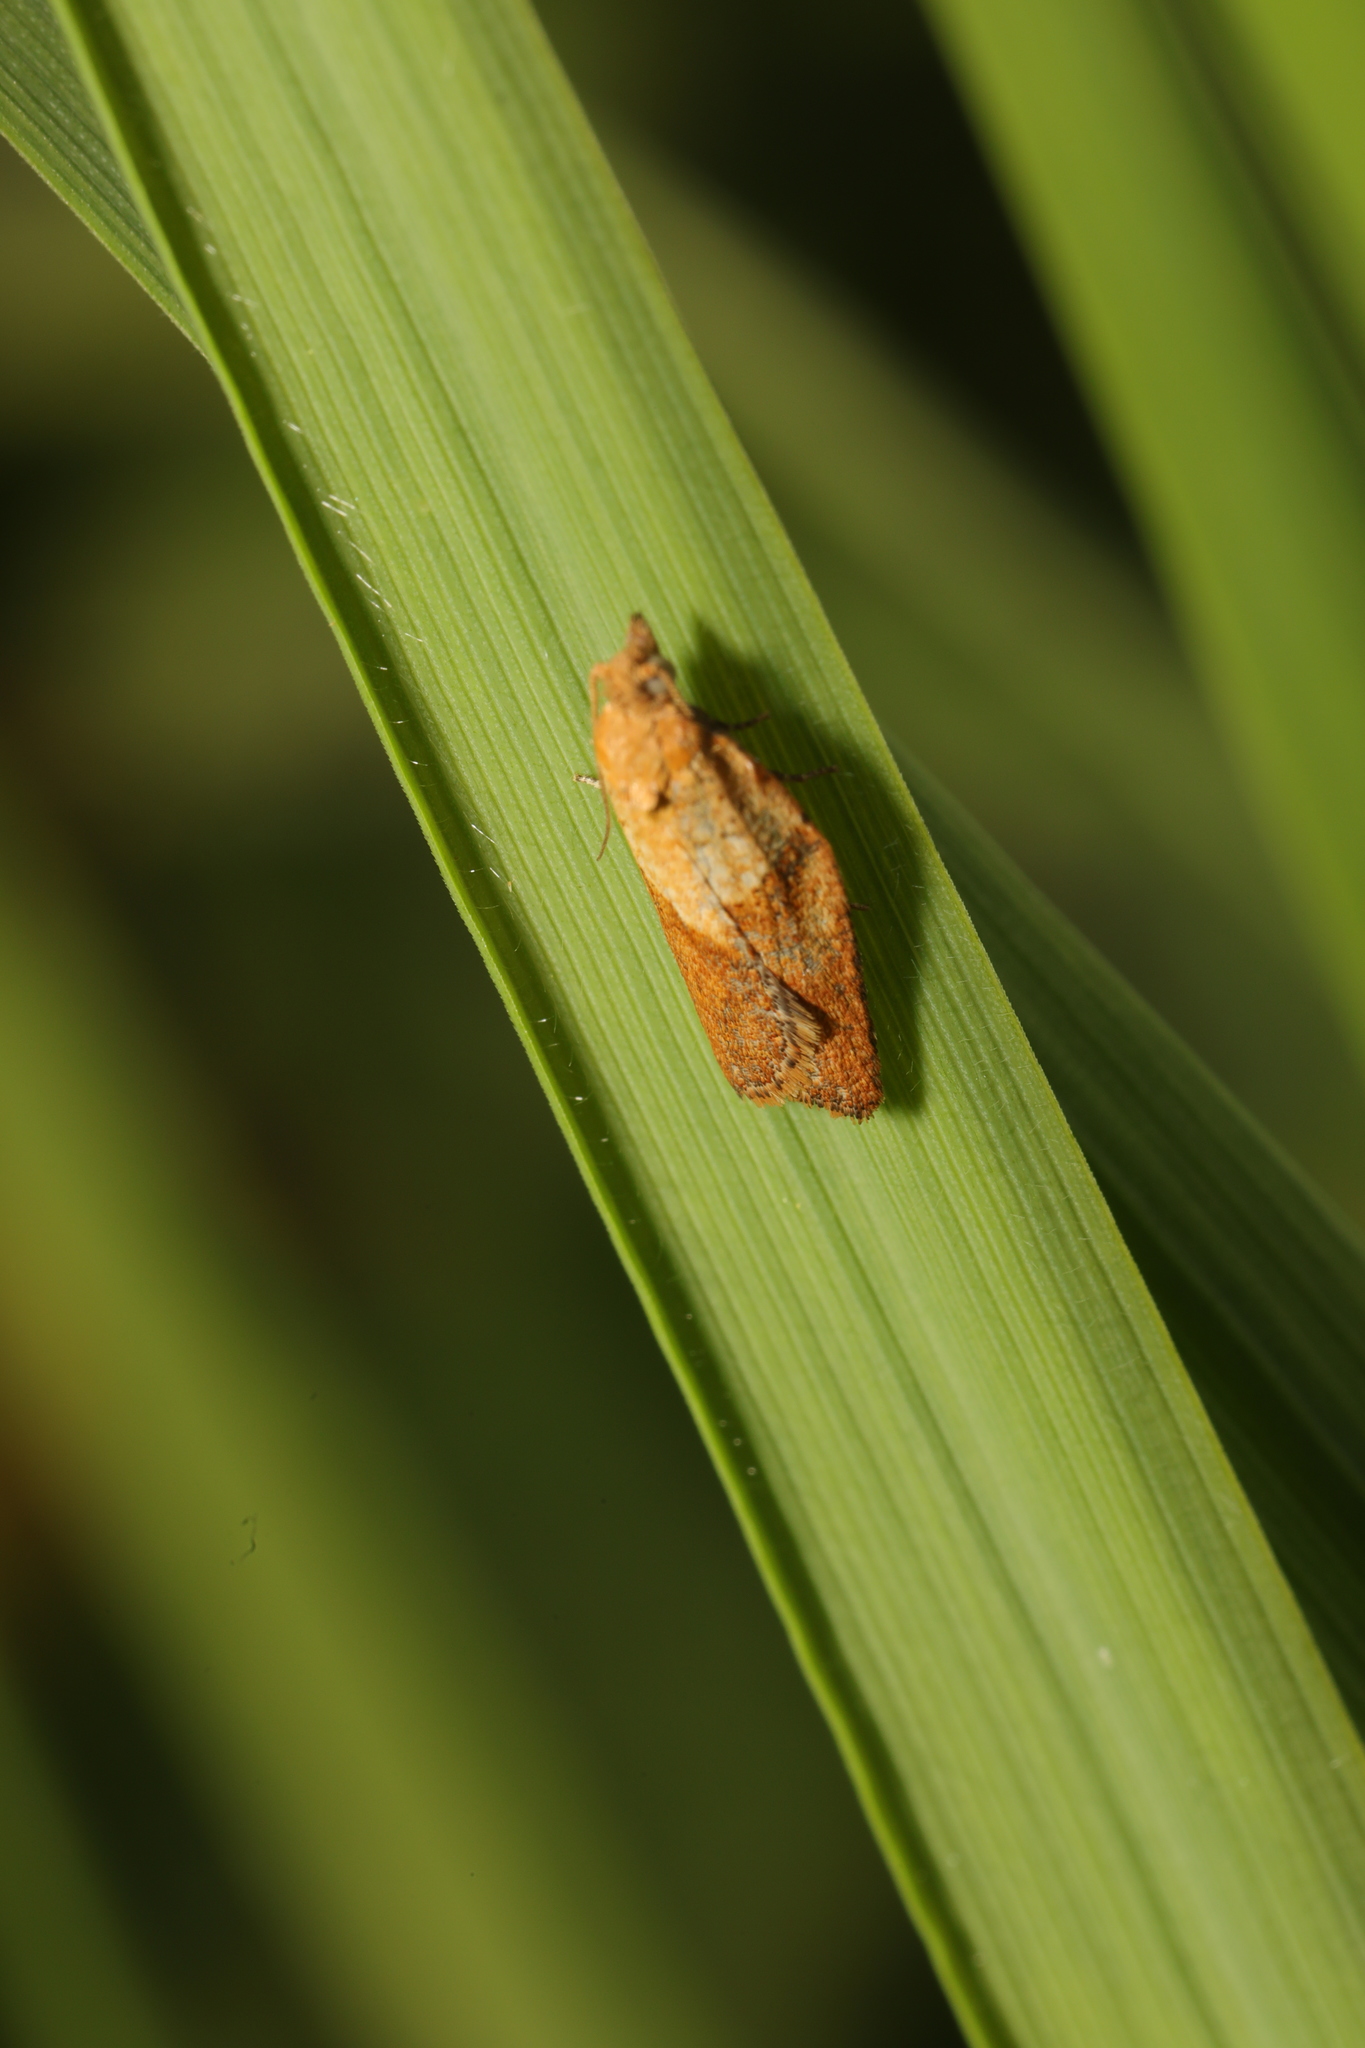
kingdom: Animalia
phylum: Arthropoda
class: Insecta
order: Lepidoptera
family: Tortricidae
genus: Epiphyas
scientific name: Epiphyas postvittana
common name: Light brown apple moth
